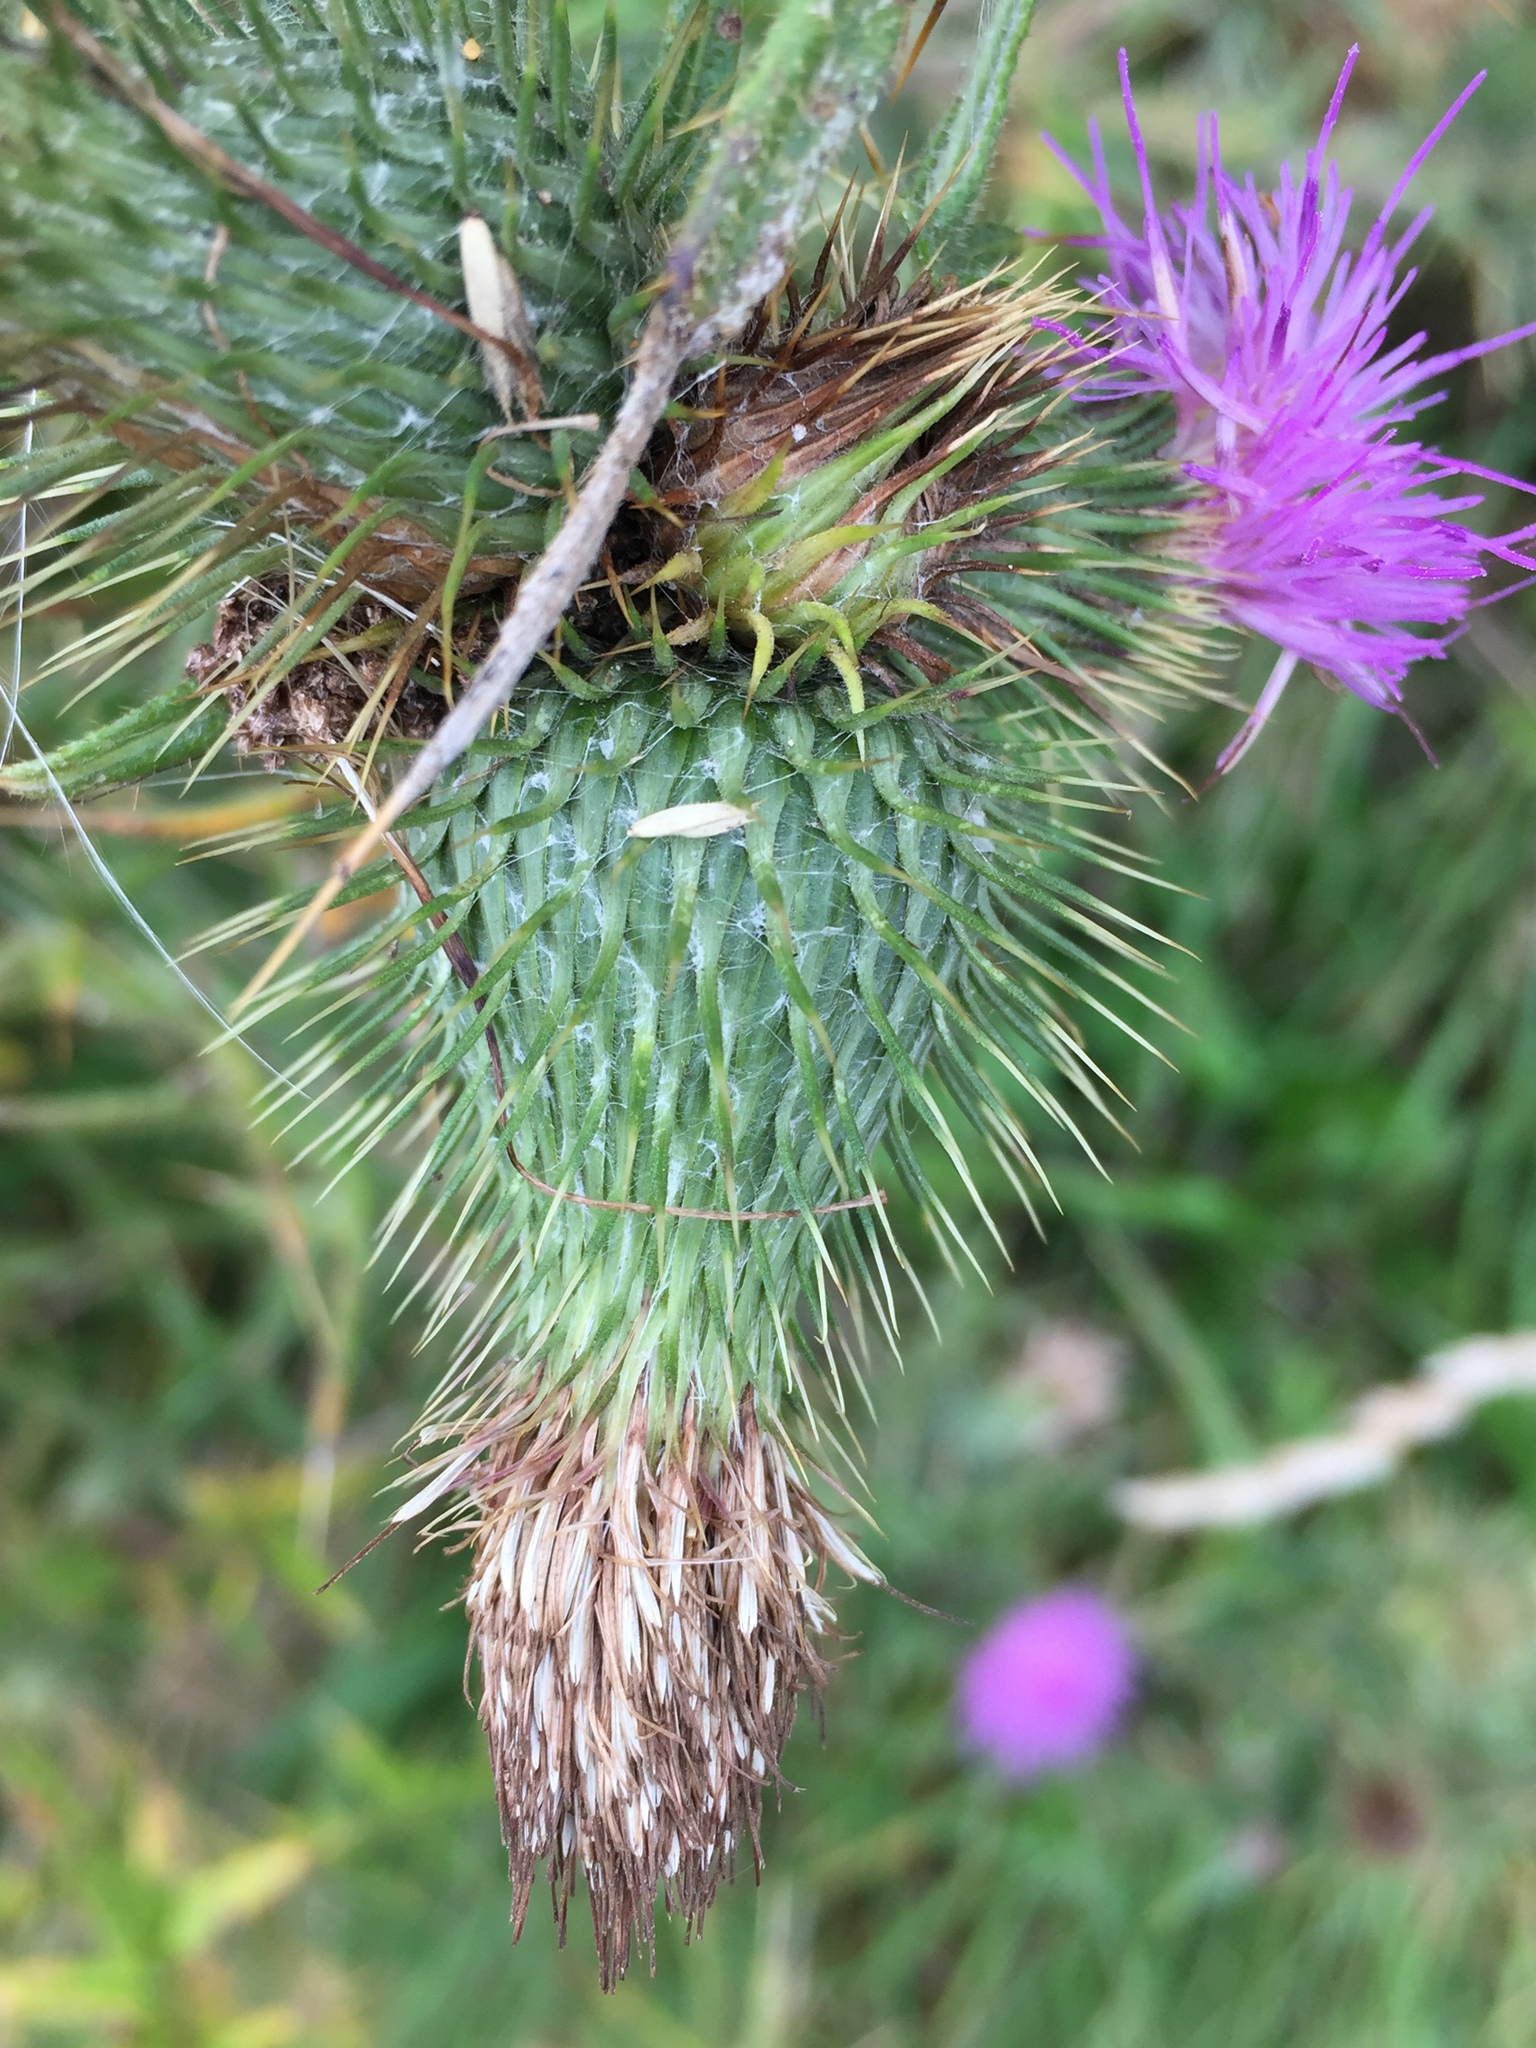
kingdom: Plantae
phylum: Tracheophyta
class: Magnoliopsida
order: Asterales
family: Asteraceae
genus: Cirsium
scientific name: Cirsium vulgare
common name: Bull thistle
